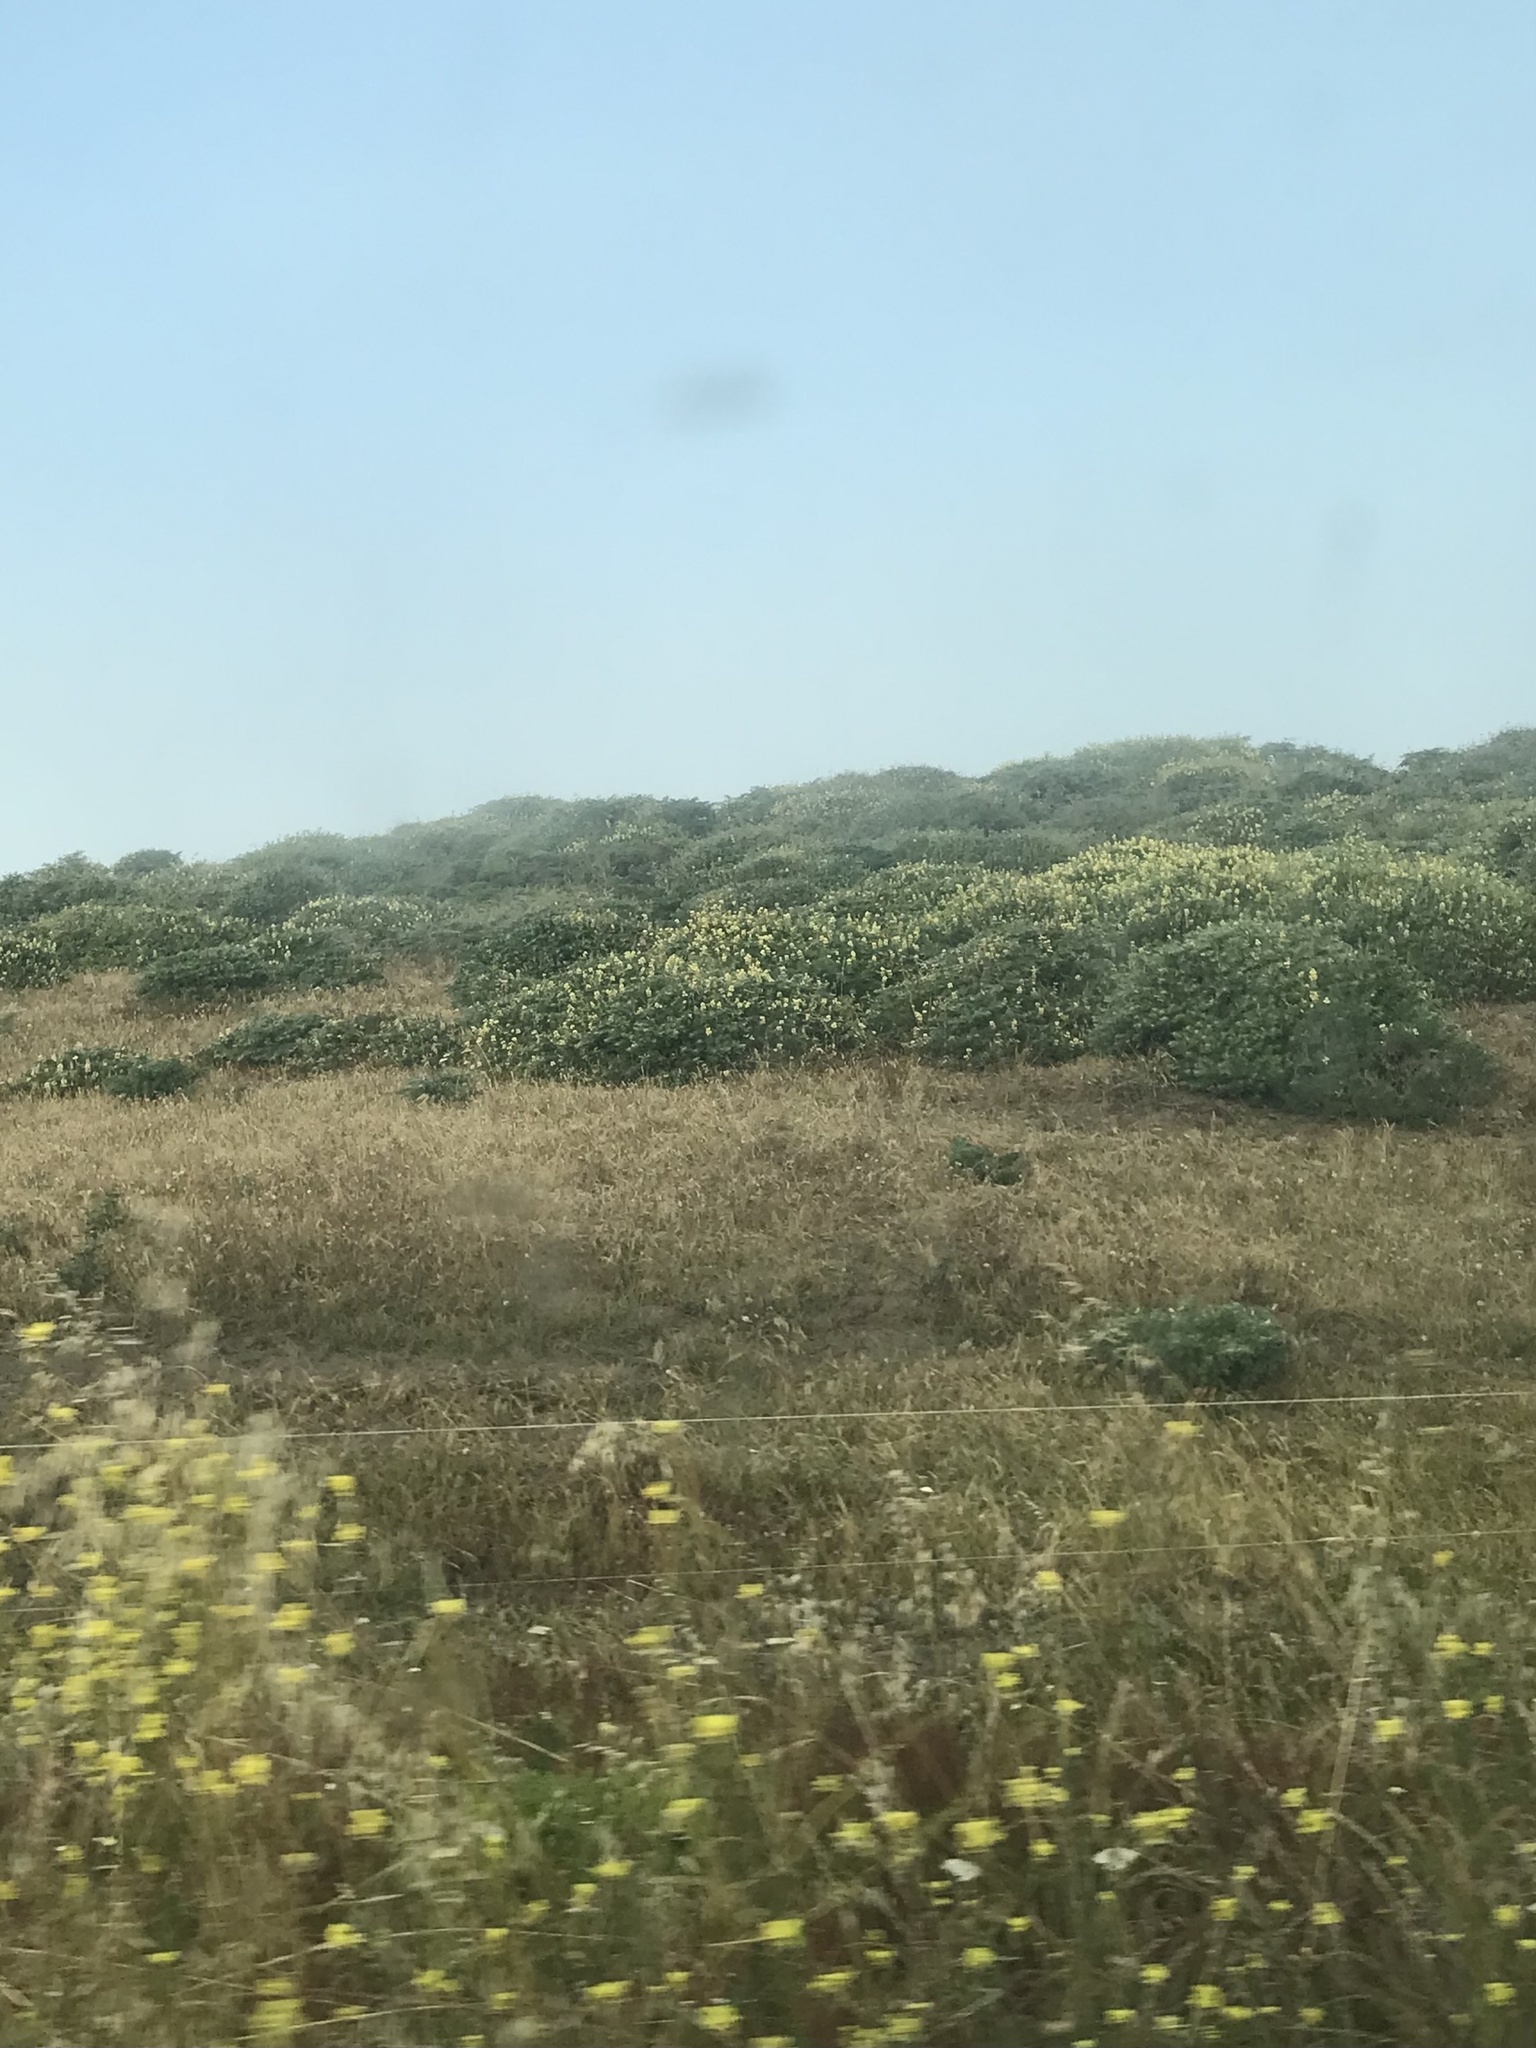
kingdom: Plantae
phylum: Tracheophyta
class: Magnoliopsida
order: Fabales
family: Fabaceae
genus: Lupinus
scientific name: Lupinus arboreus
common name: Yellow bush lupine
